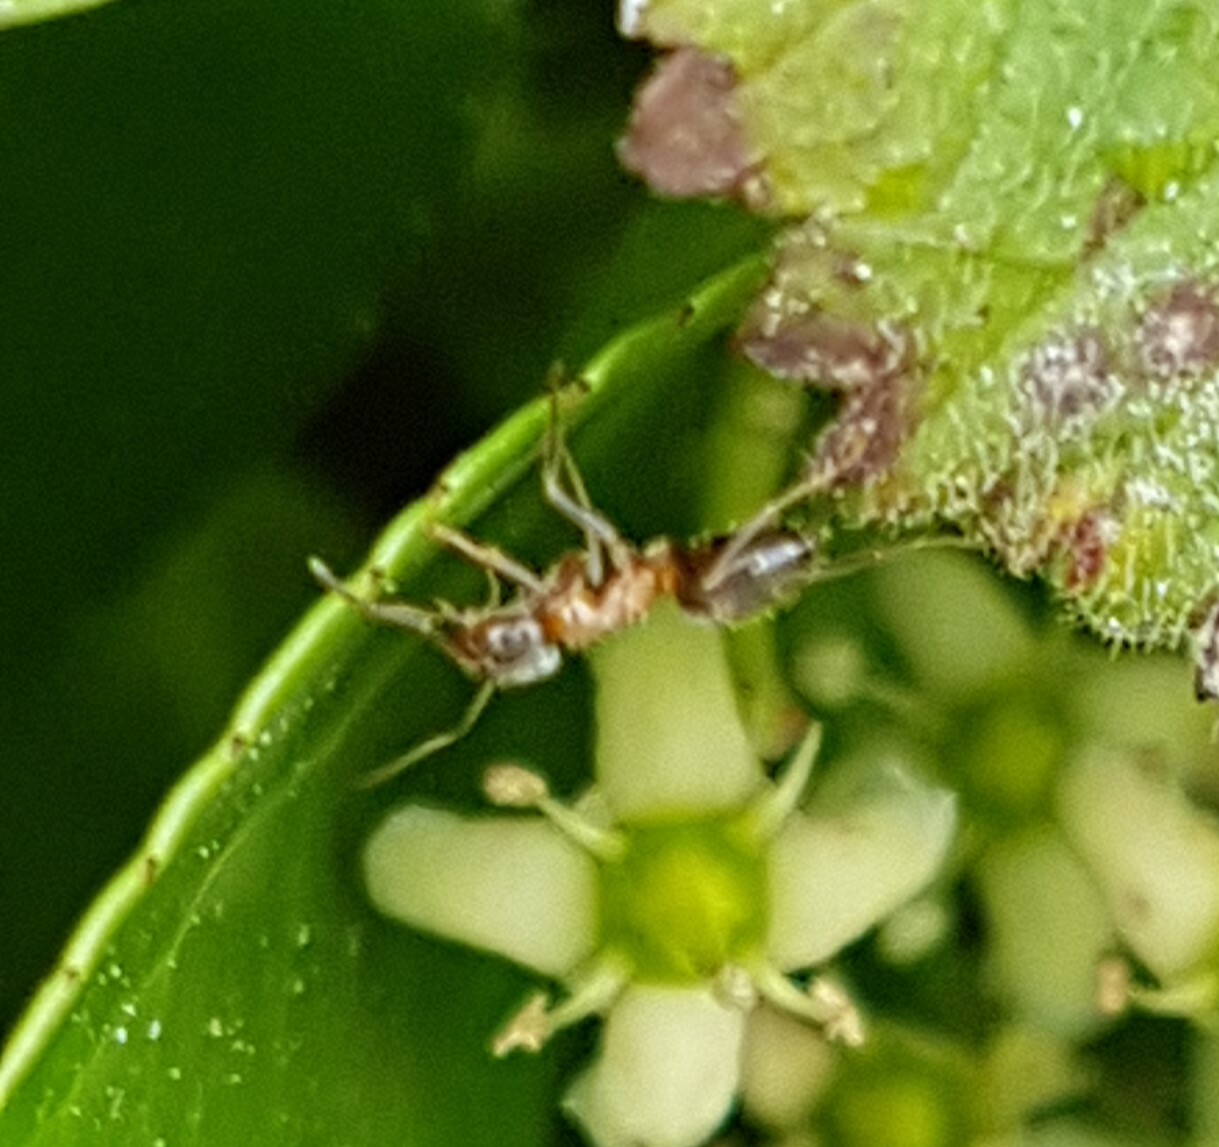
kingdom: Animalia
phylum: Arthropoda
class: Insecta
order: Hymenoptera
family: Formicidae
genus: Lasius
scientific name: Lasius emarginatus
